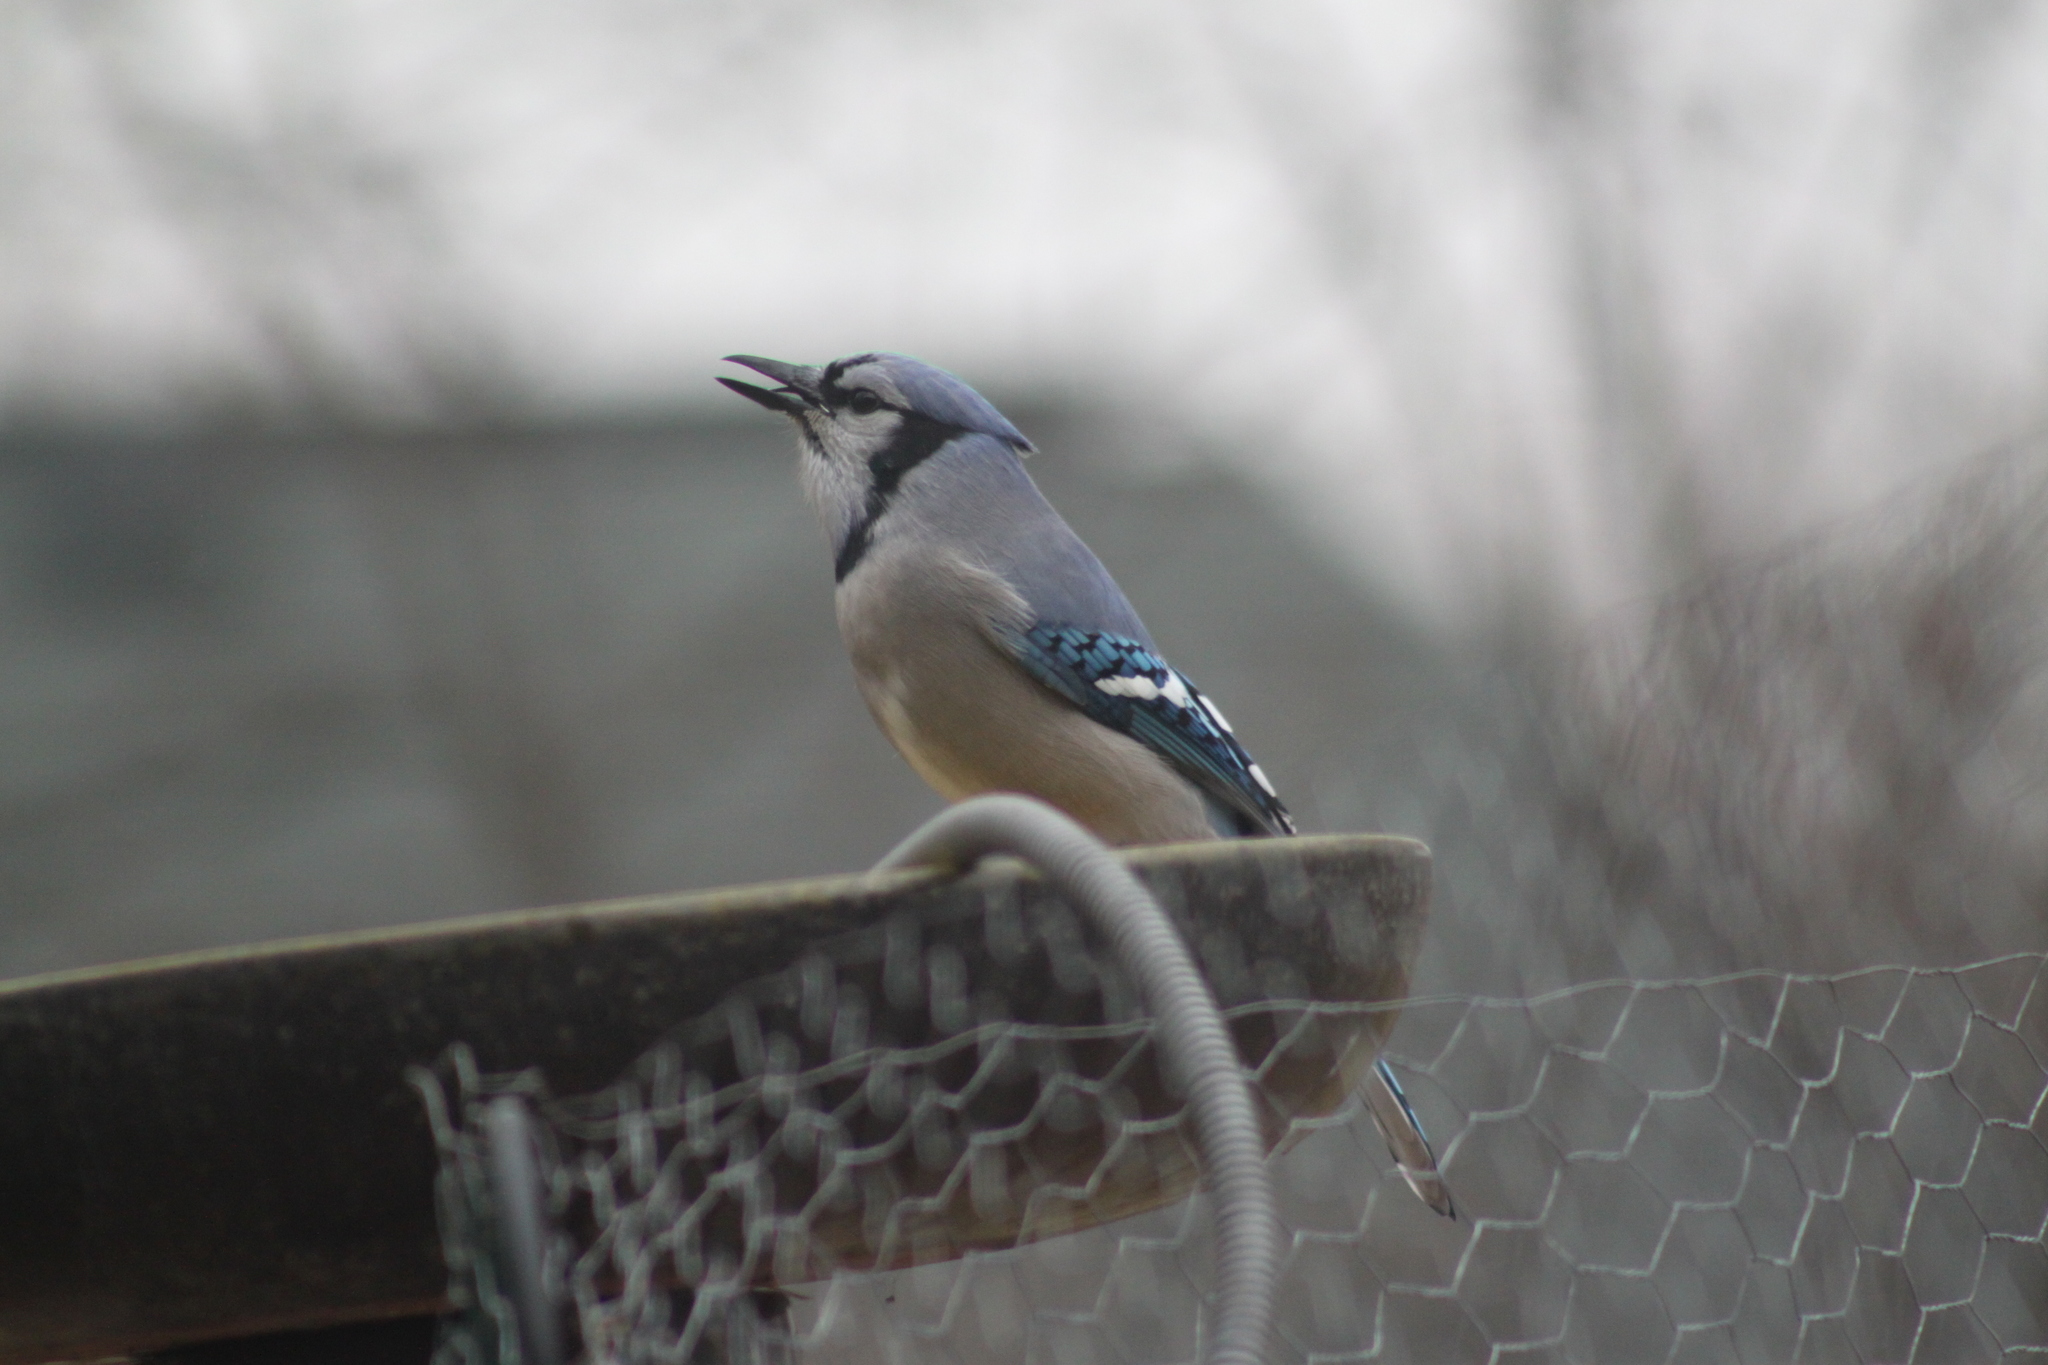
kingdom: Animalia
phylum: Chordata
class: Aves
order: Passeriformes
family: Corvidae
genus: Cyanocitta
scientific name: Cyanocitta cristata
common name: Blue jay
